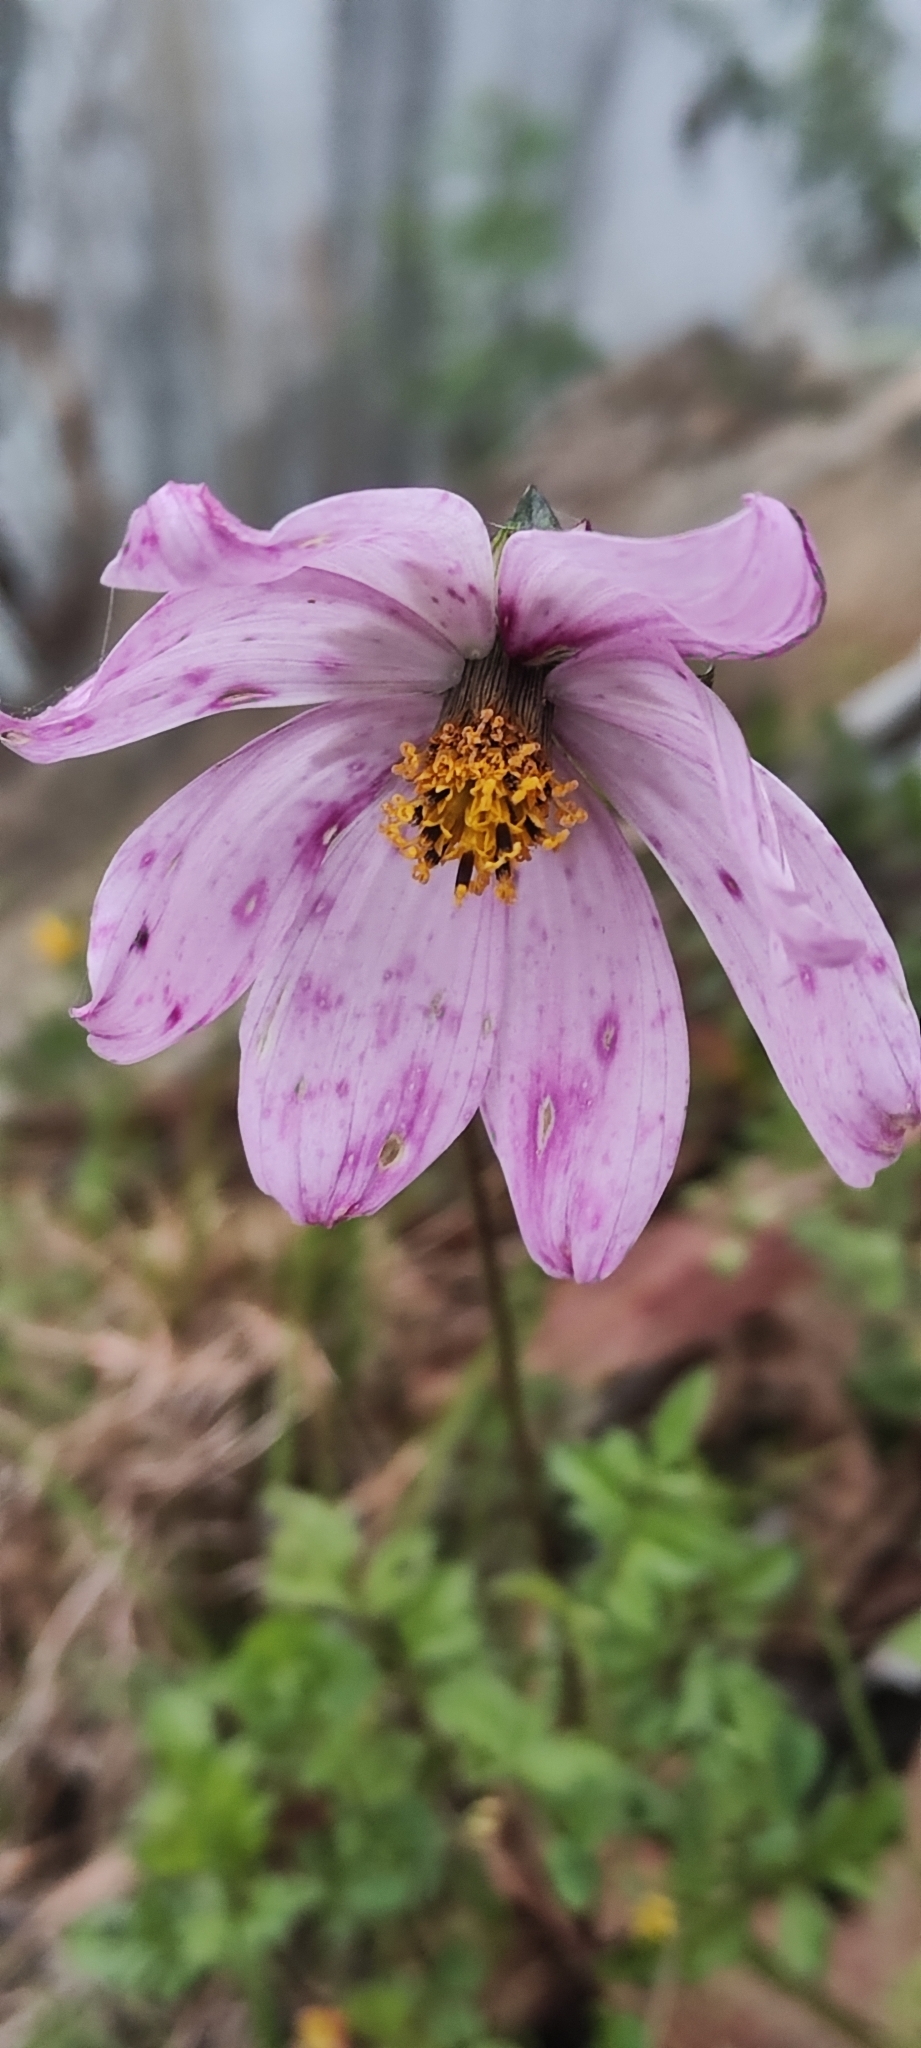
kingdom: Plantae
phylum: Tracheophyta
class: Magnoliopsida
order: Asterales
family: Asteraceae
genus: Cosmos
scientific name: Cosmos peucedanifolius
